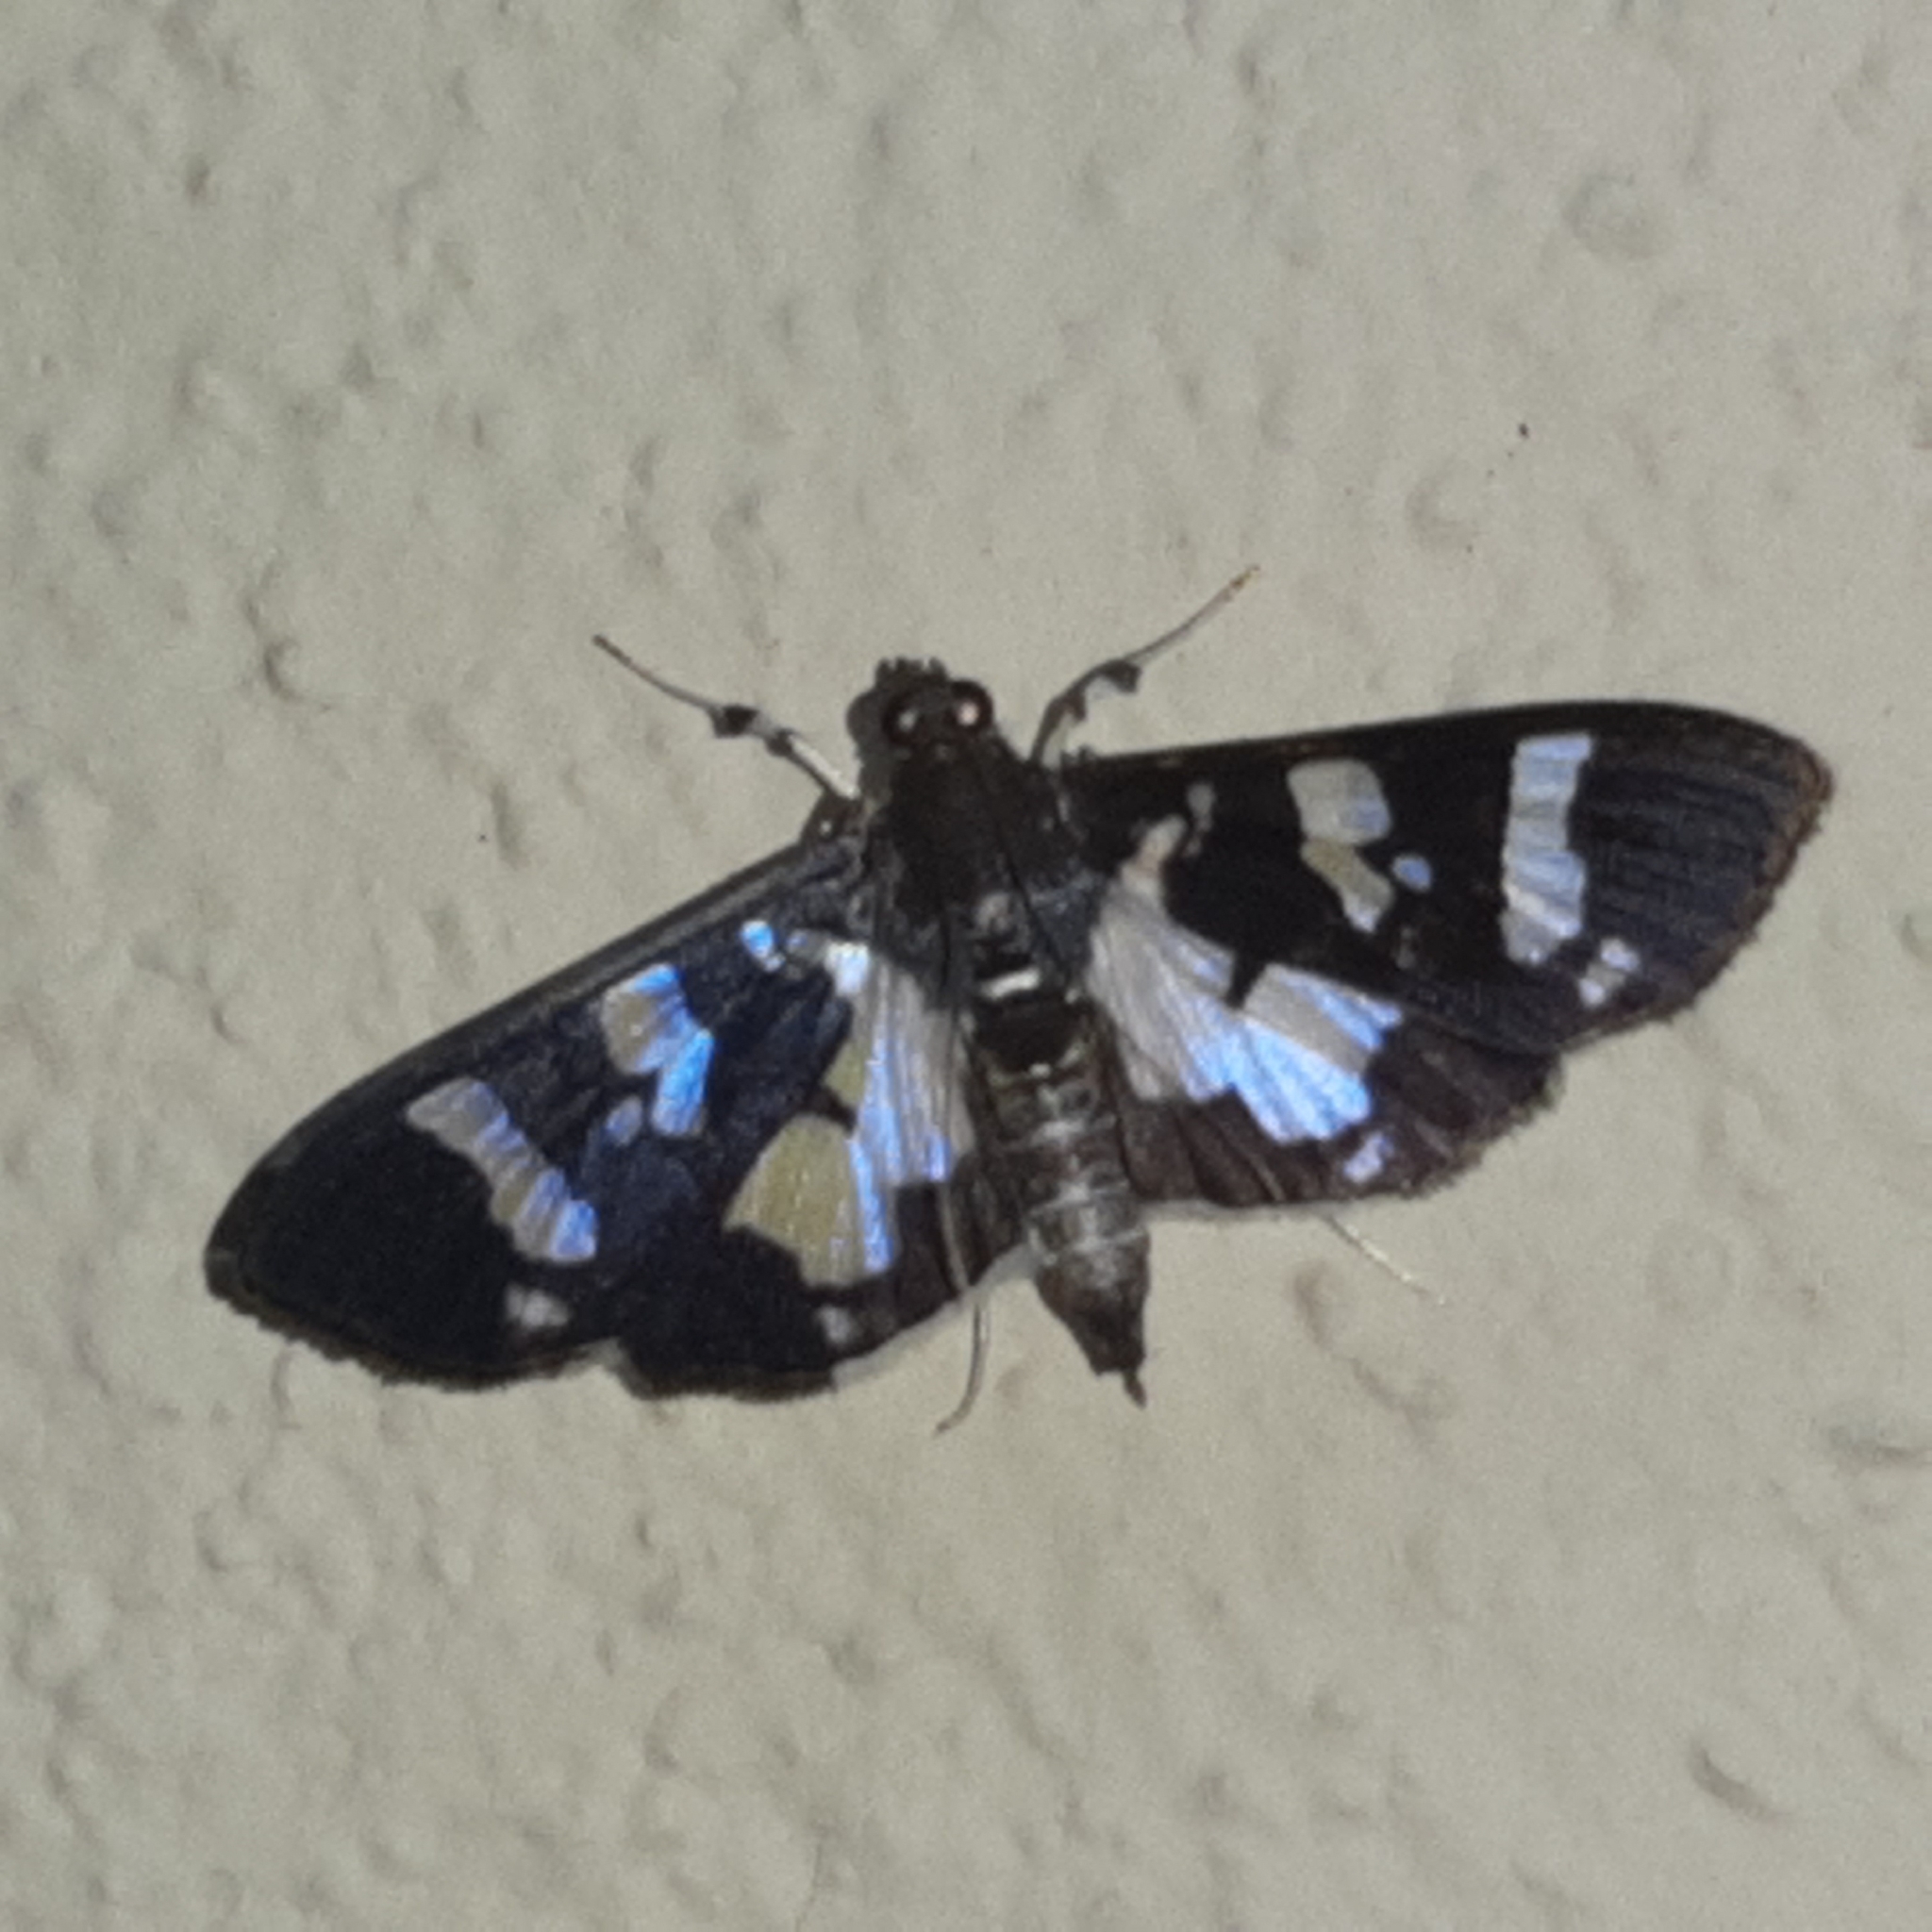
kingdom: Animalia
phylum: Arthropoda
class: Insecta
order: Lepidoptera
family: Crambidae
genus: Desmia
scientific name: Desmia bajulalis
